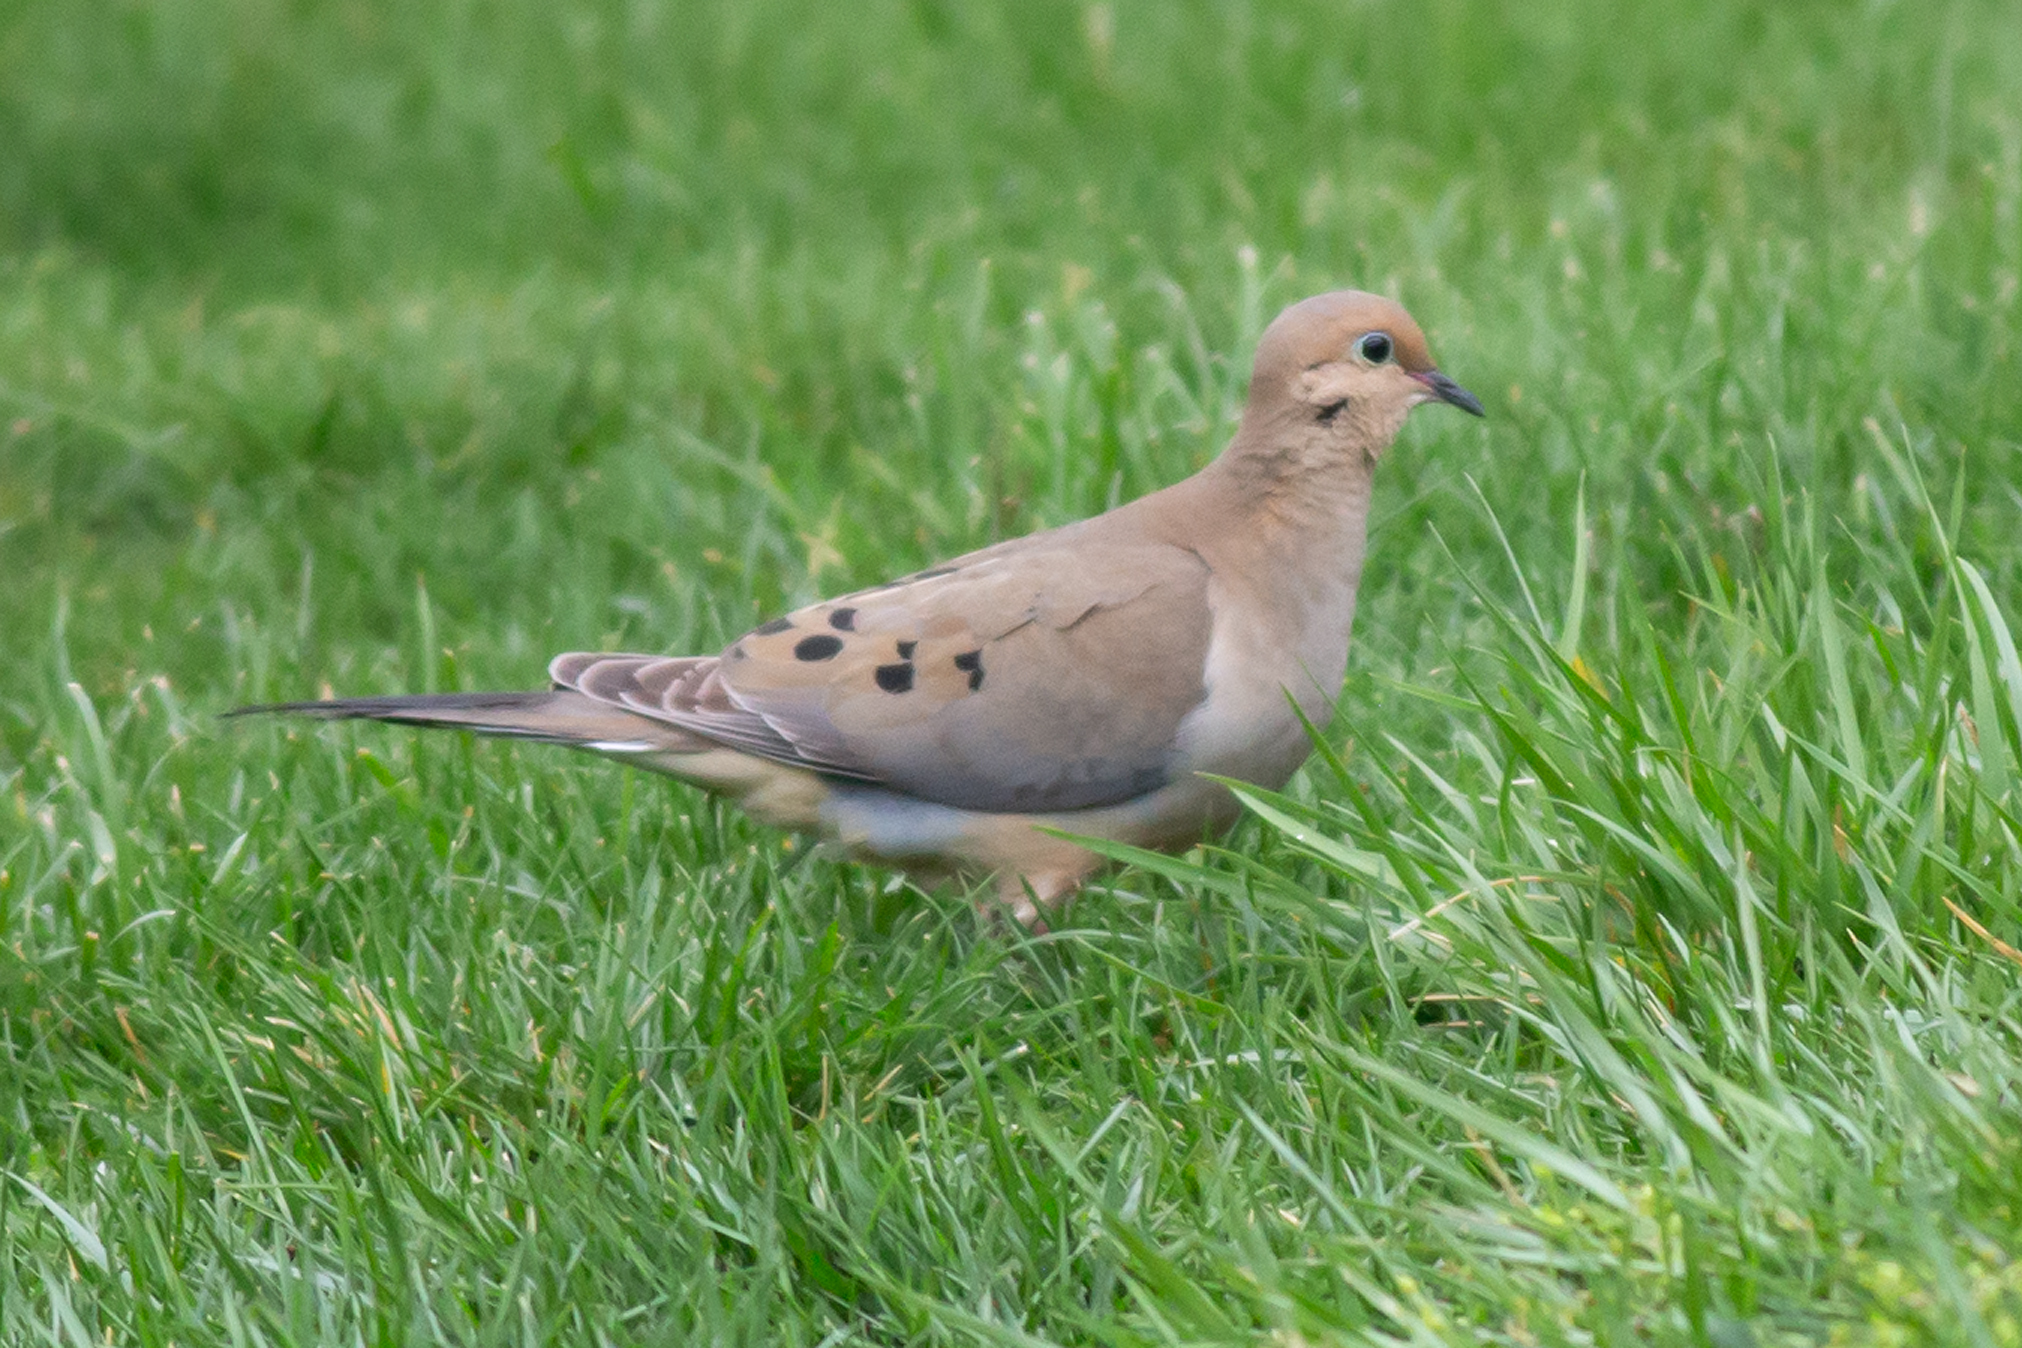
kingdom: Animalia
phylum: Chordata
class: Aves
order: Columbiformes
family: Columbidae
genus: Zenaida
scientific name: Zenaida macroura
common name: Mourning dove
